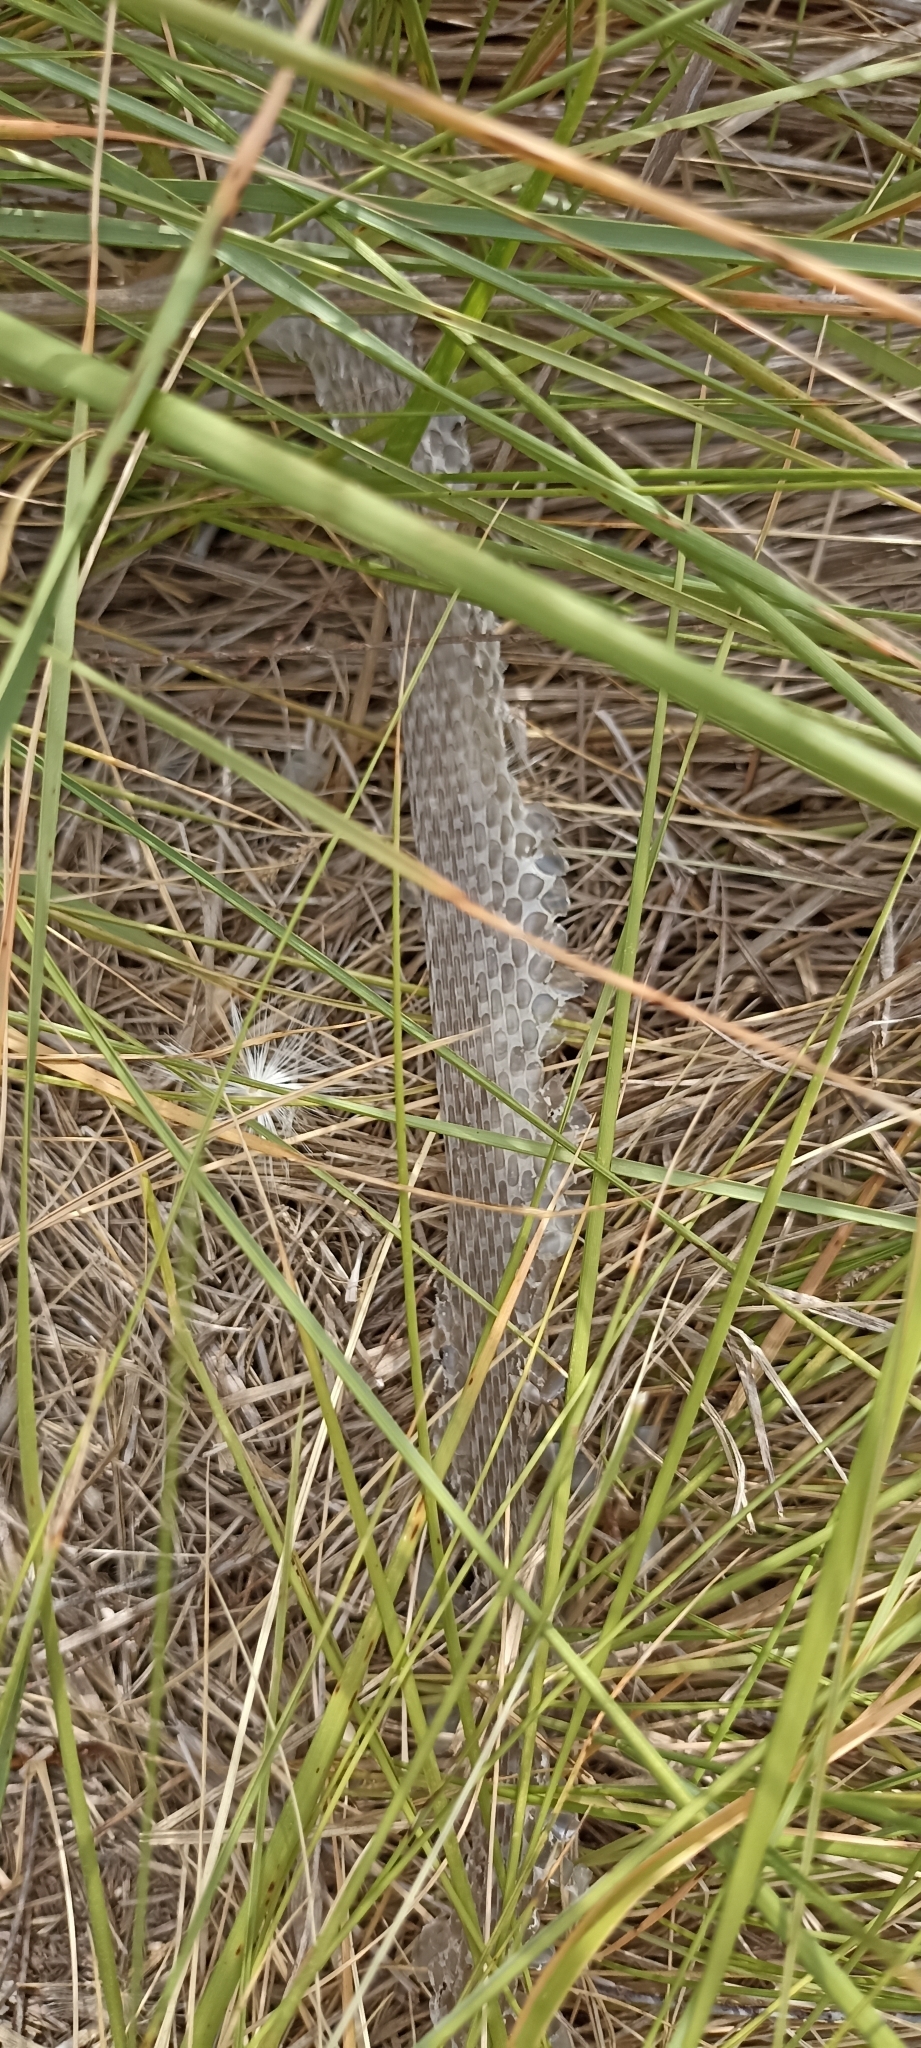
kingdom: Animalia
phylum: Chordata
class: Squamata
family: Psammophiidae
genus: Malpolon
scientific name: Malpolon monspessulanus
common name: Montpellier snake
